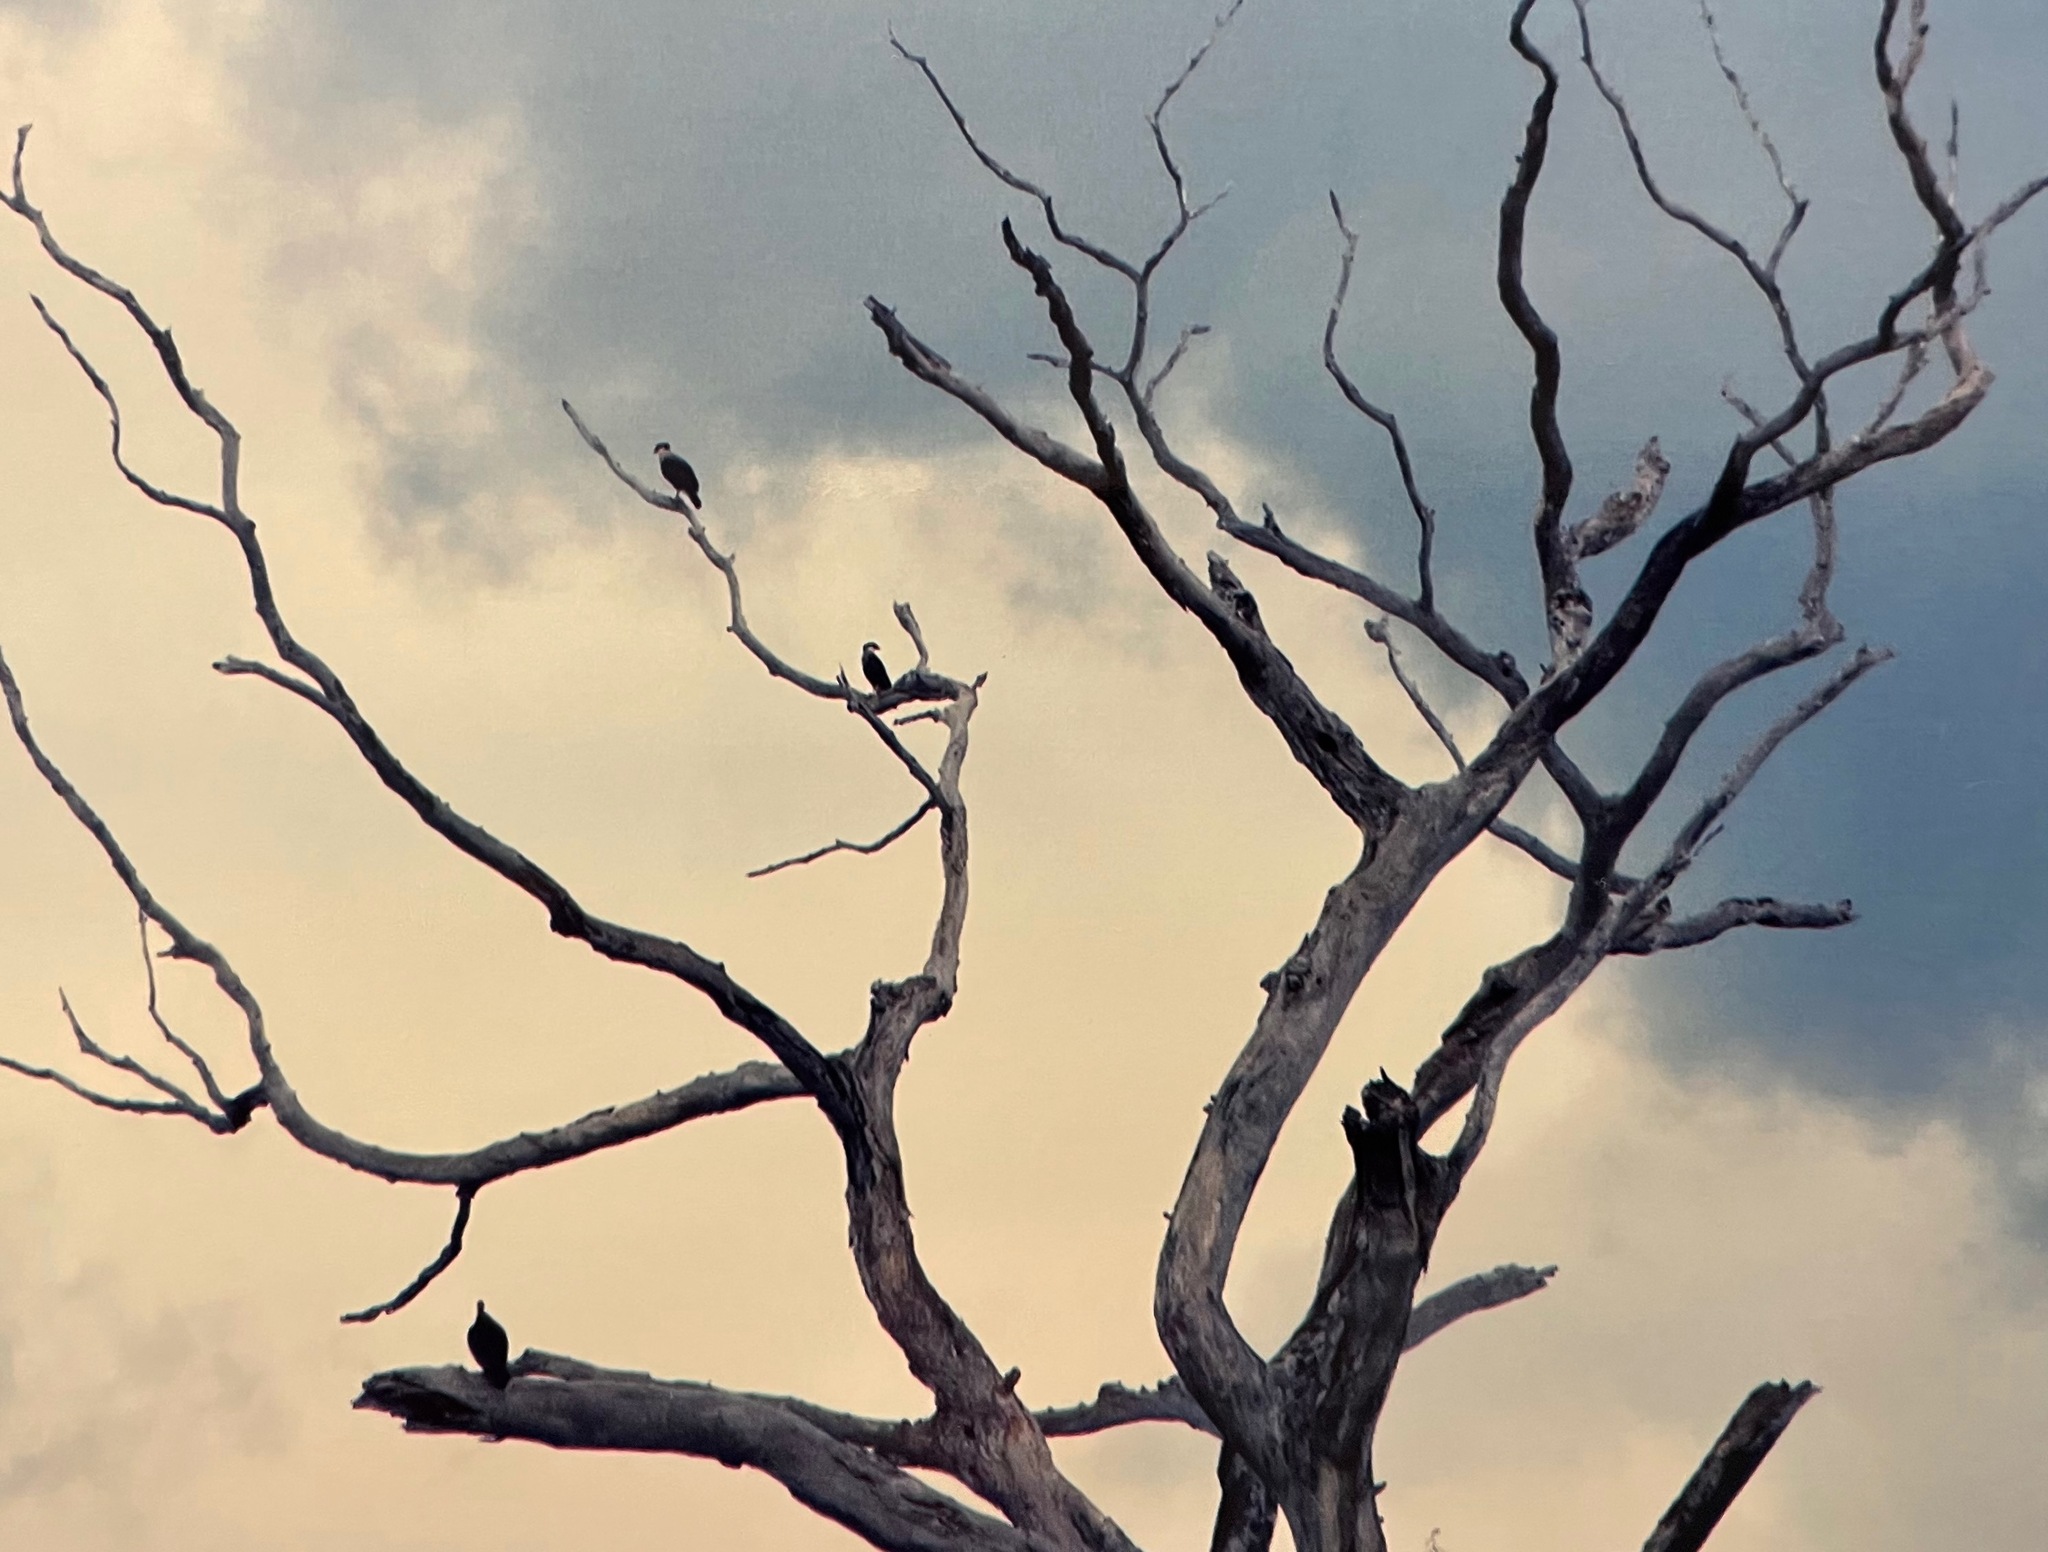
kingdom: Animalia
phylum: Chordata
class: Aves
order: Falconiformes
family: Falconidae
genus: Caracara
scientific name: Caracara plancus
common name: Southern caracara
